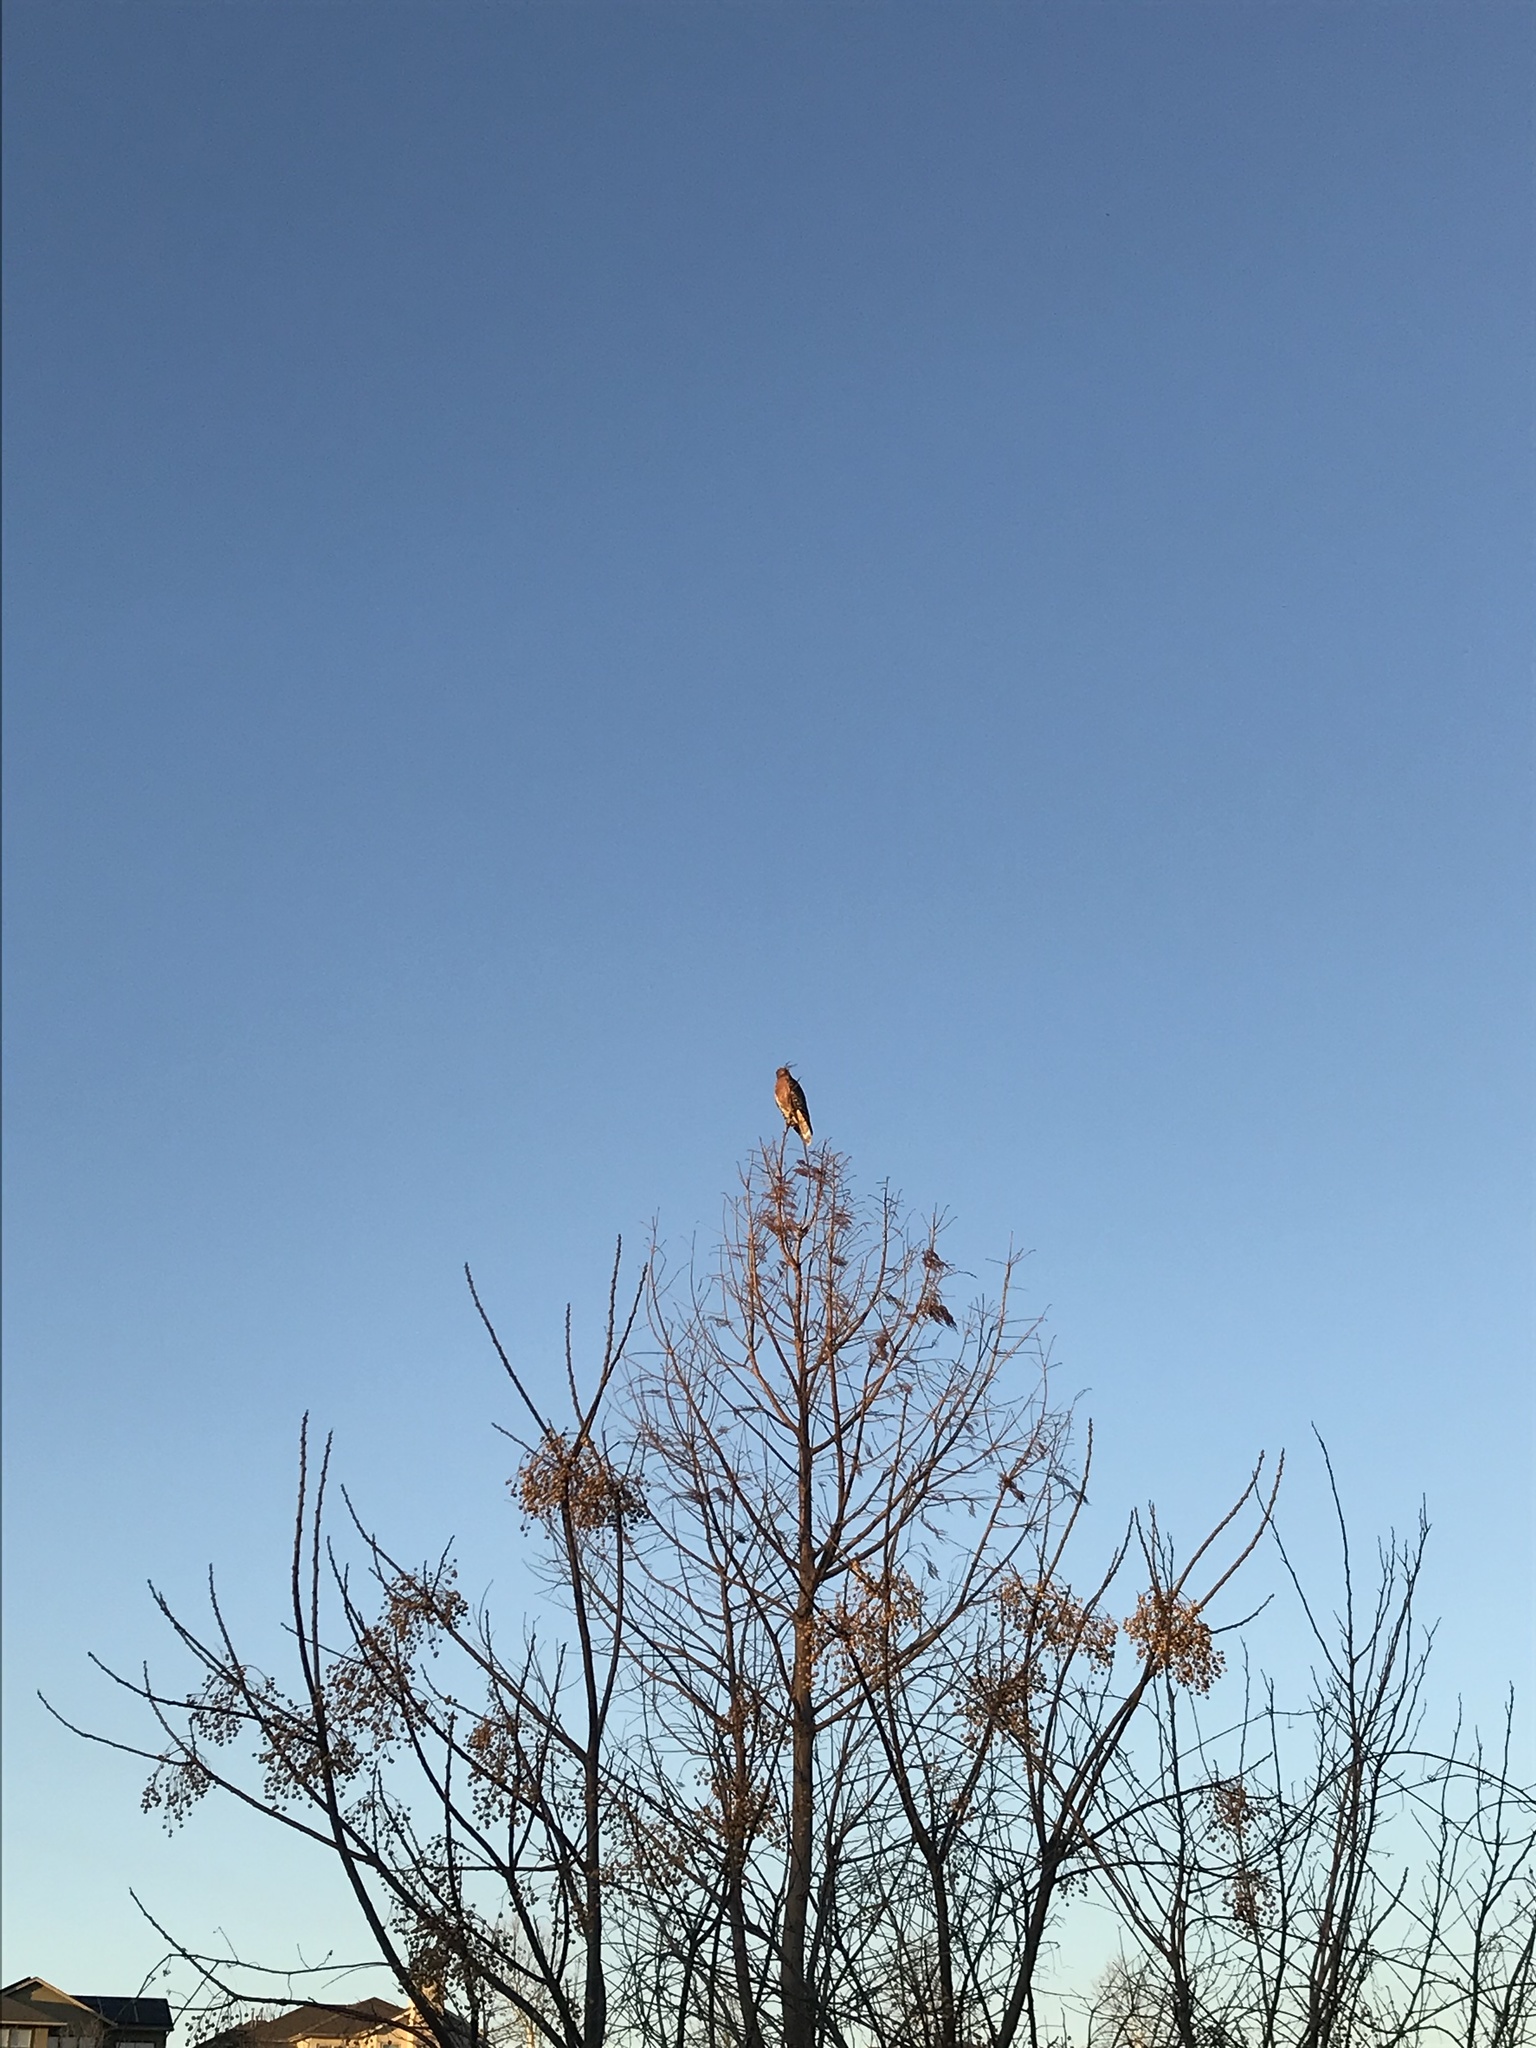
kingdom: Animalia
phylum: Chordata
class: Aves
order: Accipitriformes
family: Accipitridae
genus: Buteo
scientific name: Buteo lineatus
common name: Red-shouldered hawk
